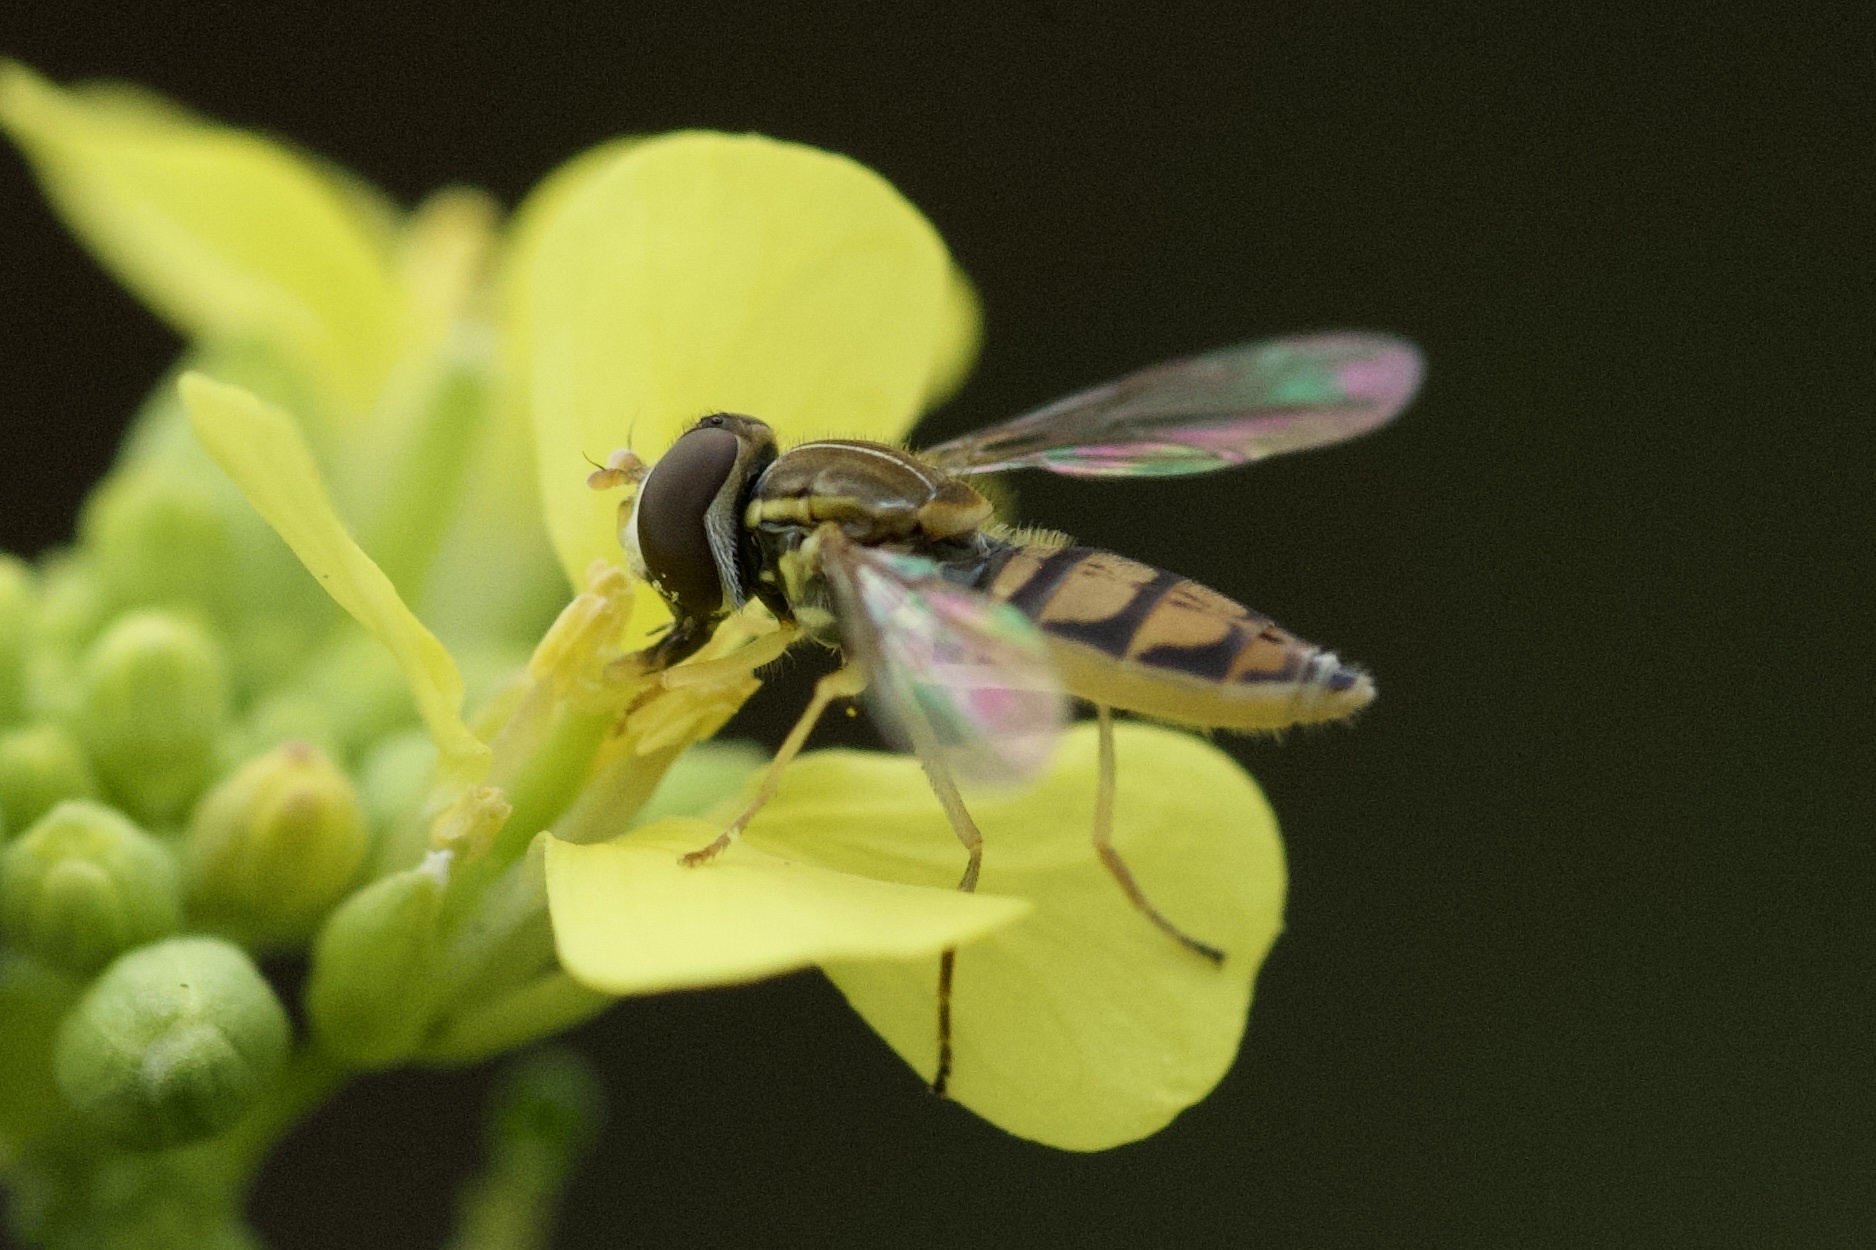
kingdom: Animalia
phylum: Arthropoda
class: Insecta
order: Diptera
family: Syrphidae
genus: Toxomerus
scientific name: Toxomerus marginatus
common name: Syrphid fly
